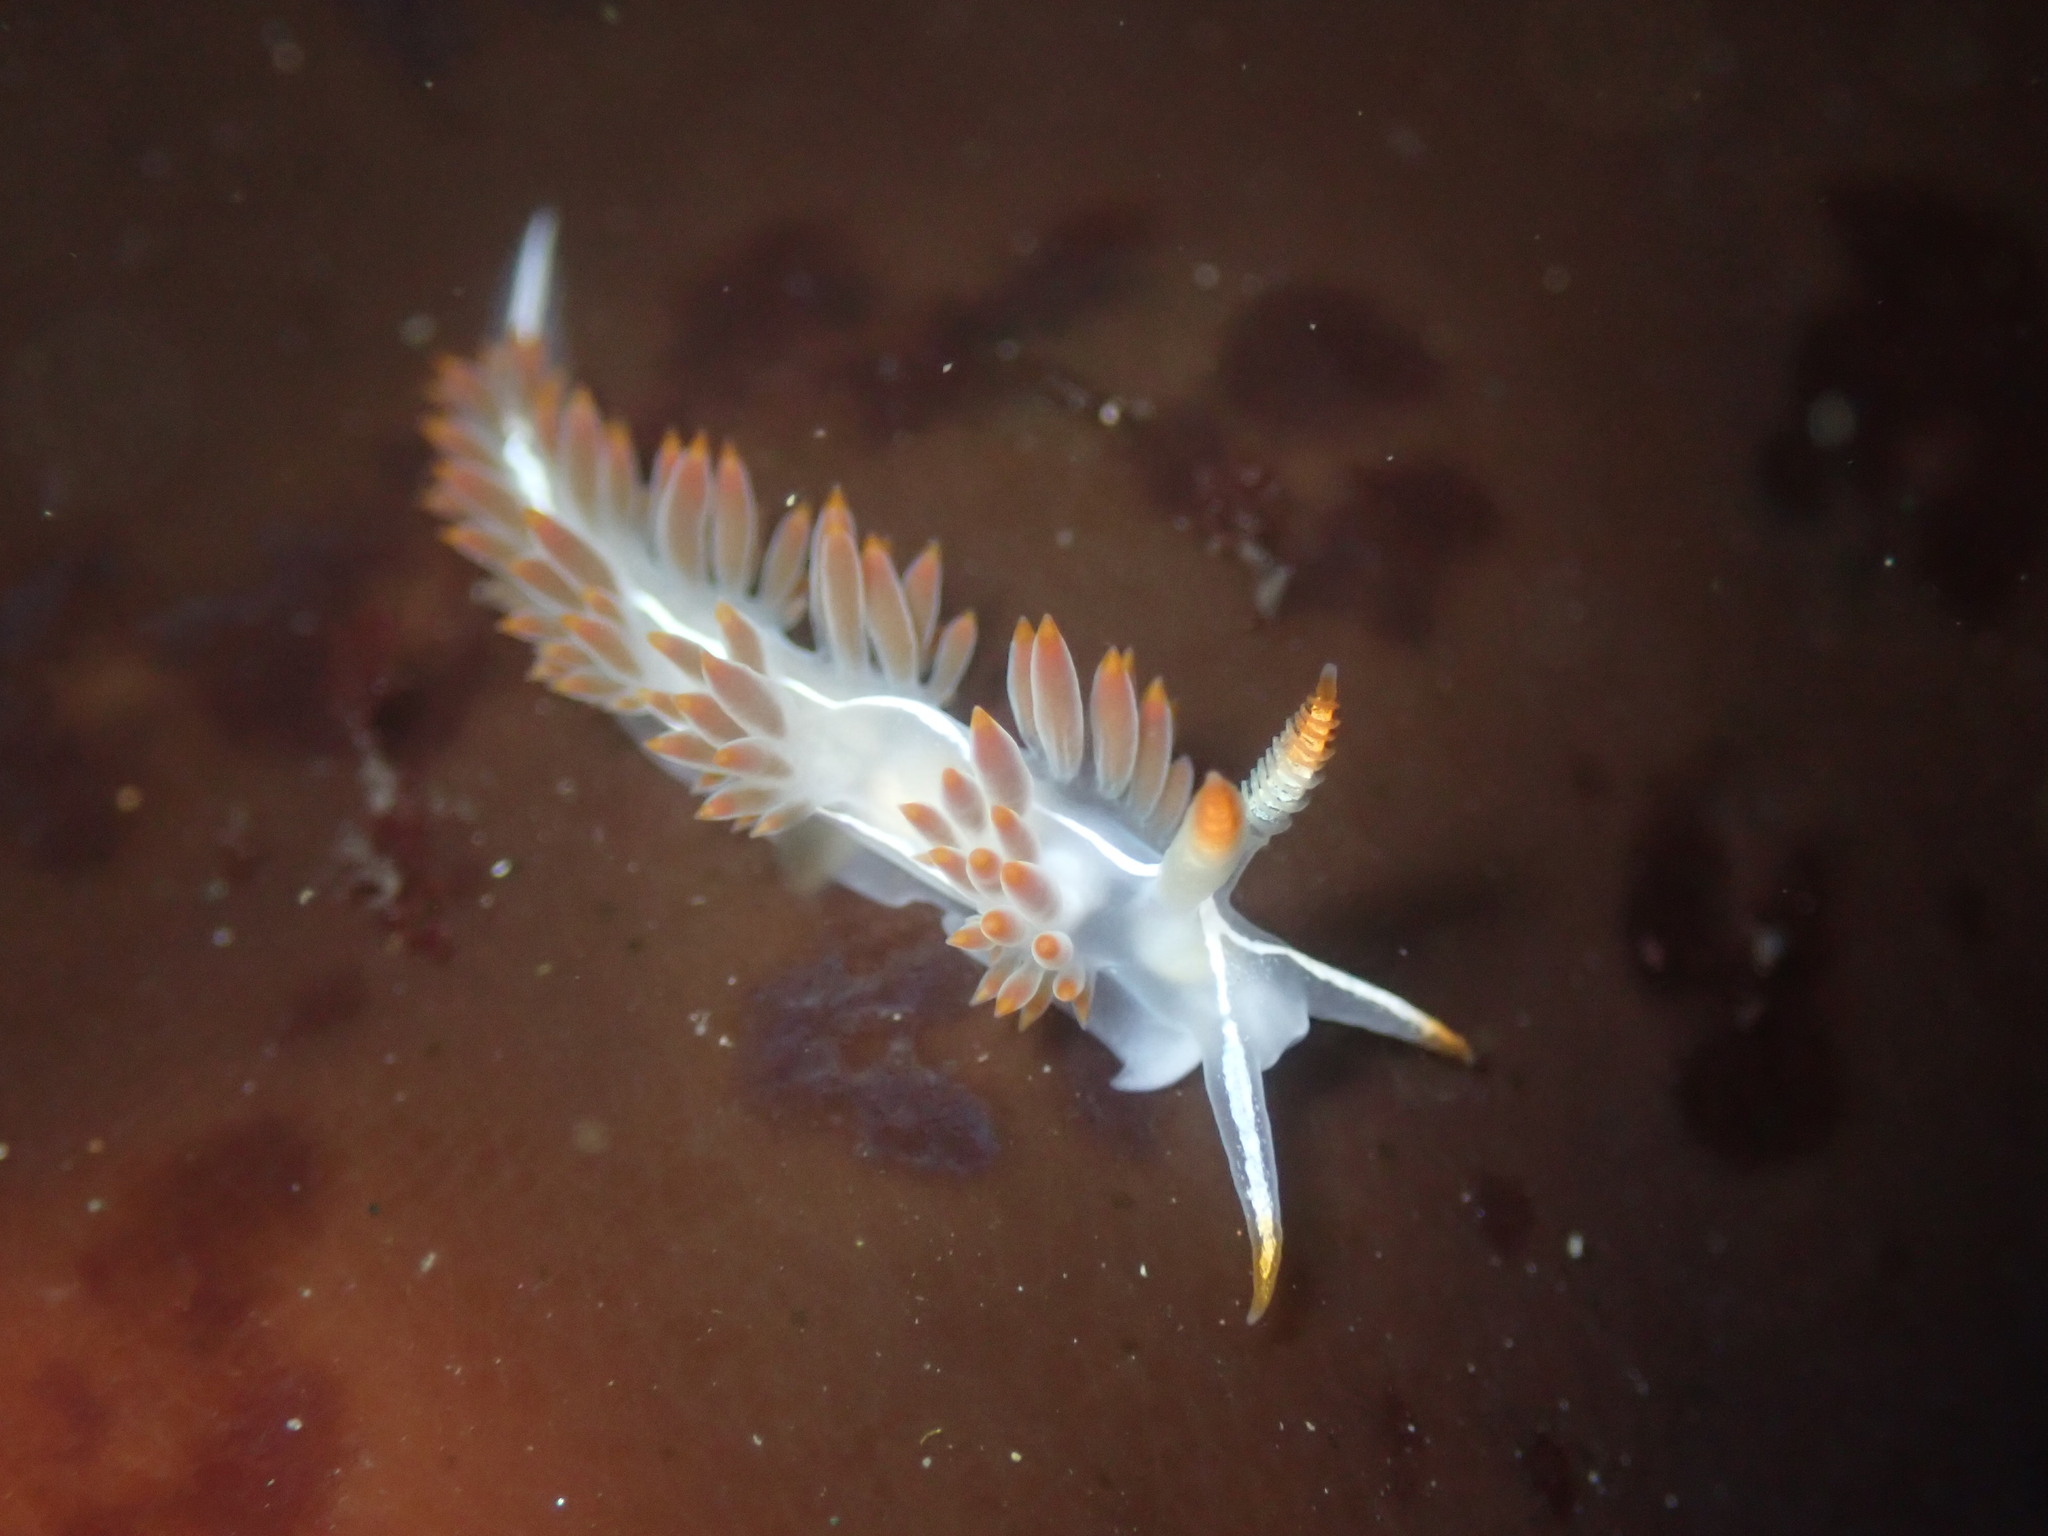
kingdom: Animalia
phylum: Mollusca
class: Gastropoda
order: Nudibranchia
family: Coryphellidae
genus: Coryphella
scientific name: Coryphella trilineata
